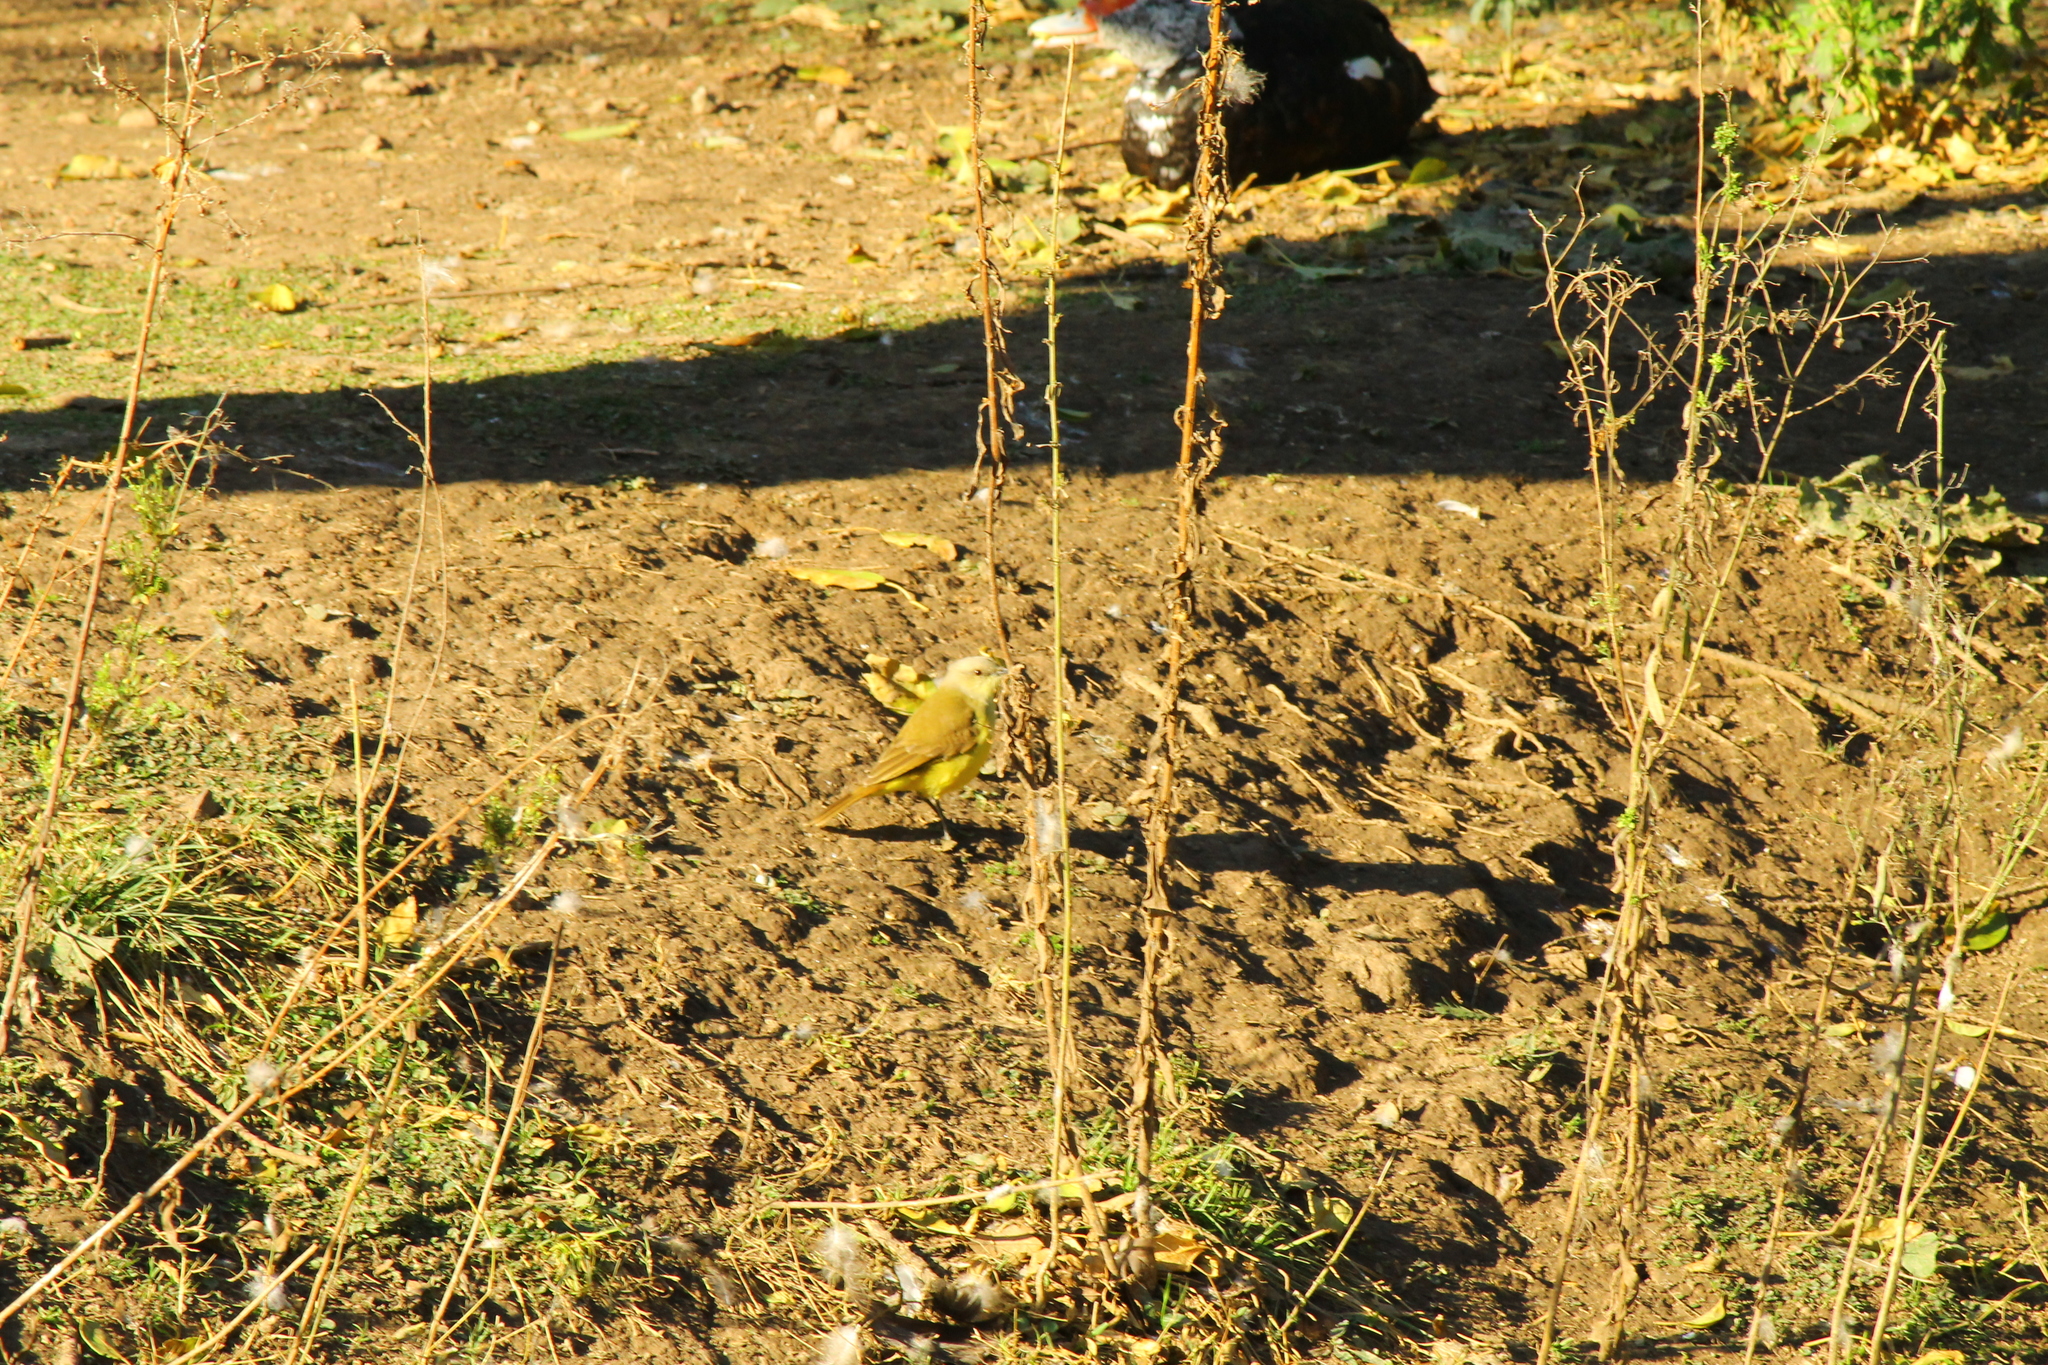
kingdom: Animalia
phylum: Chordata
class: Aves
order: Passeriformes
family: Tyrannidae
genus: Machetornis
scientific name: Machetornis rixosa
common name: Cattle tyrant
